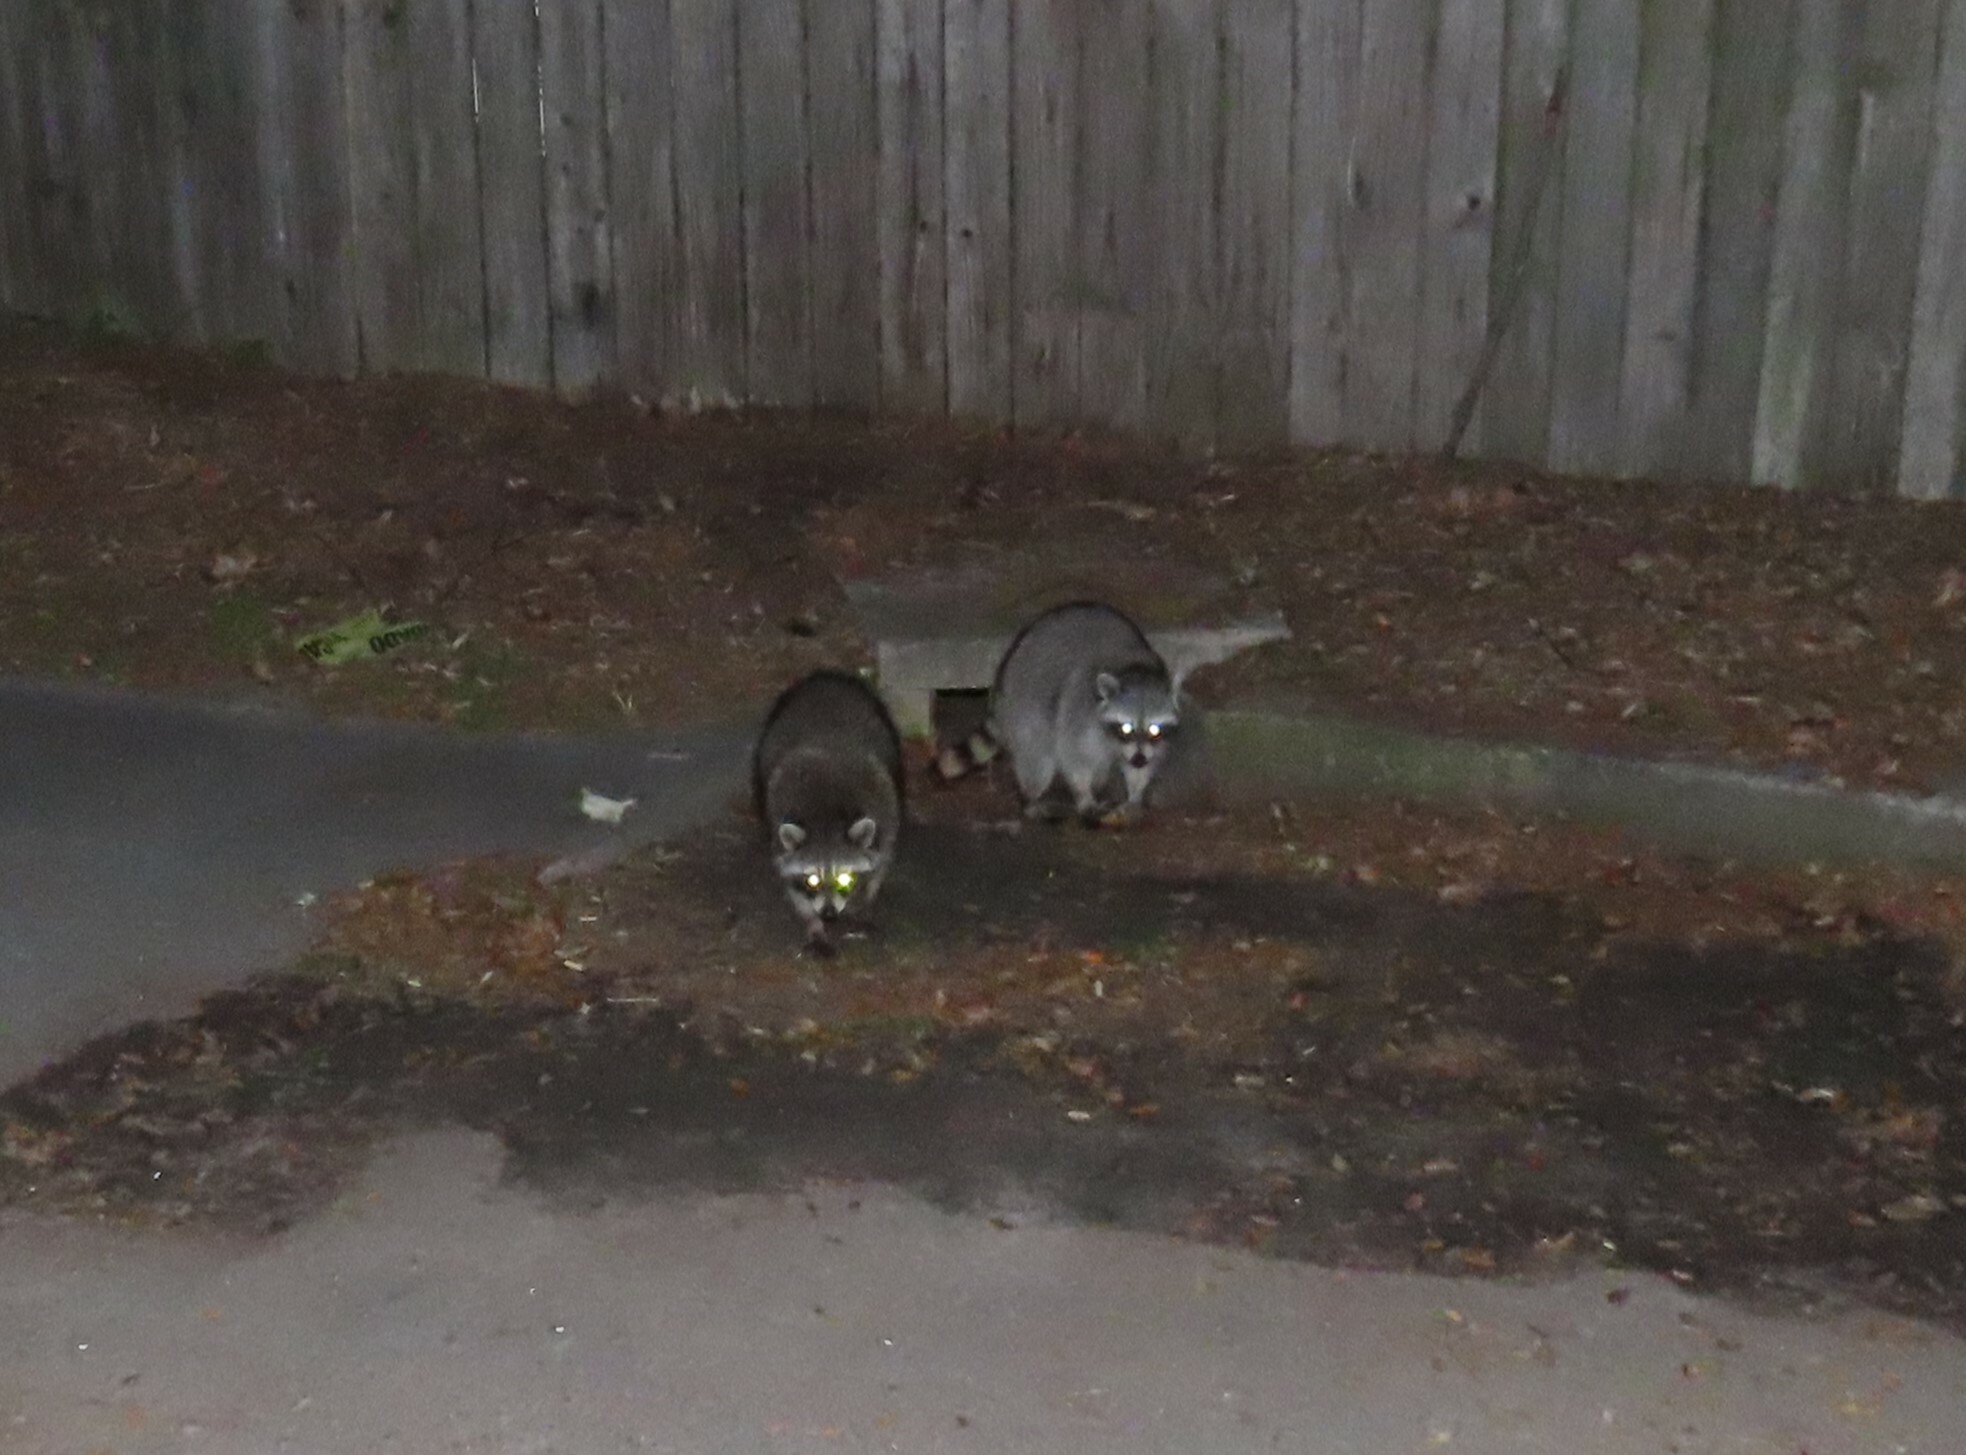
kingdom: Animalia
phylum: Chordata
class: Mammalia
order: Carnivora
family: Procyonidae
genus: Procyon
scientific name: Procyon lotor
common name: Raccoon
